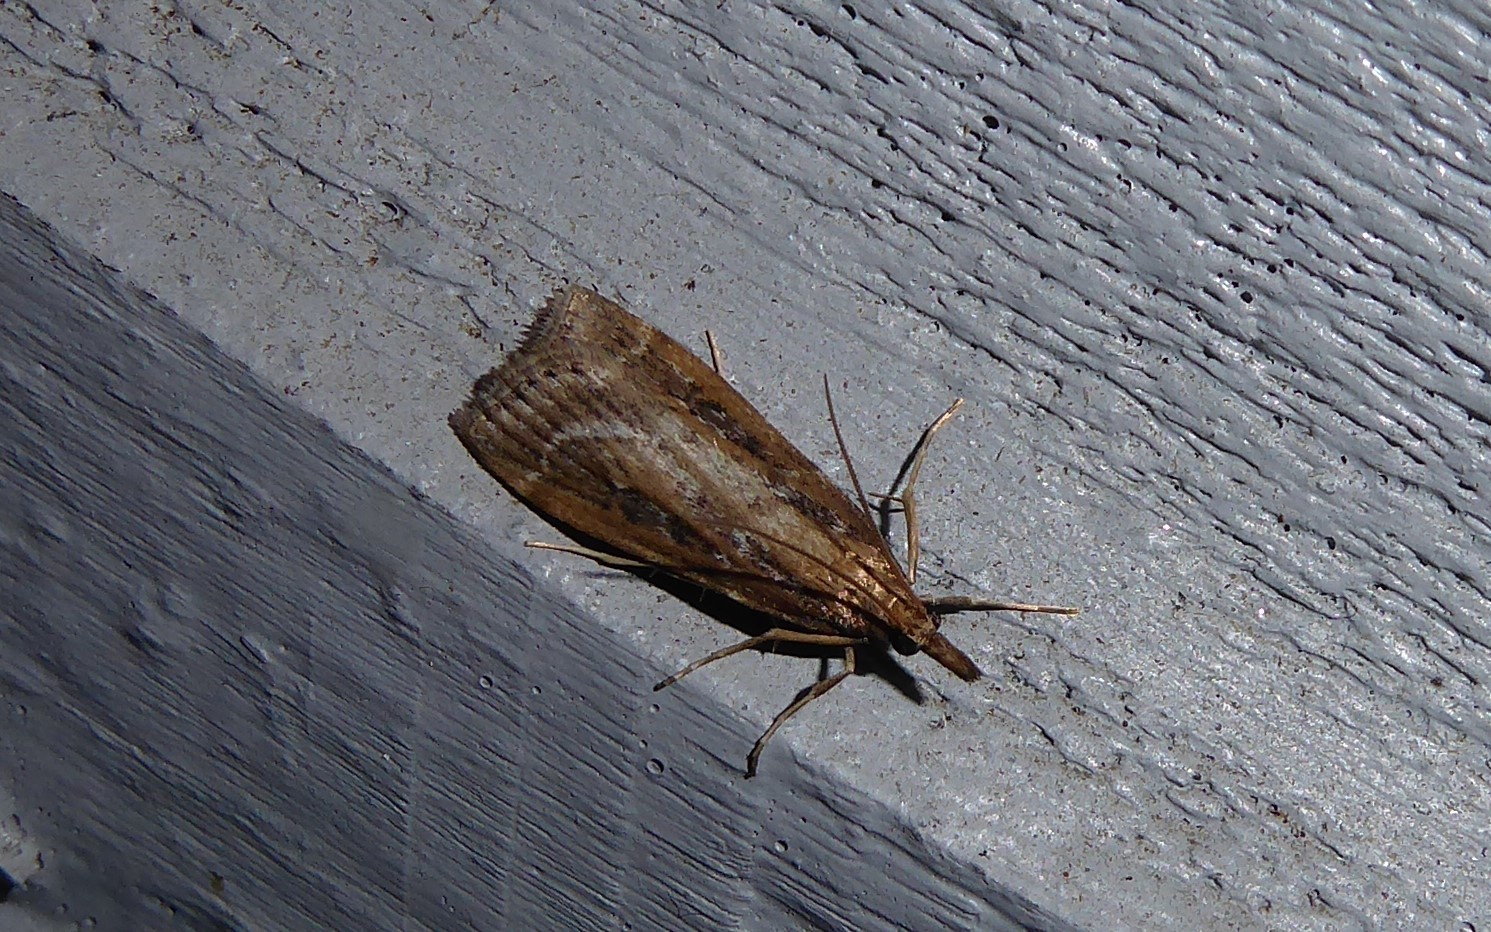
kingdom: Animalia
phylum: Arthropoda
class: Insecta
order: Lepidoptera
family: Crambidae
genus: Eudonia
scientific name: Eudonia octophora
